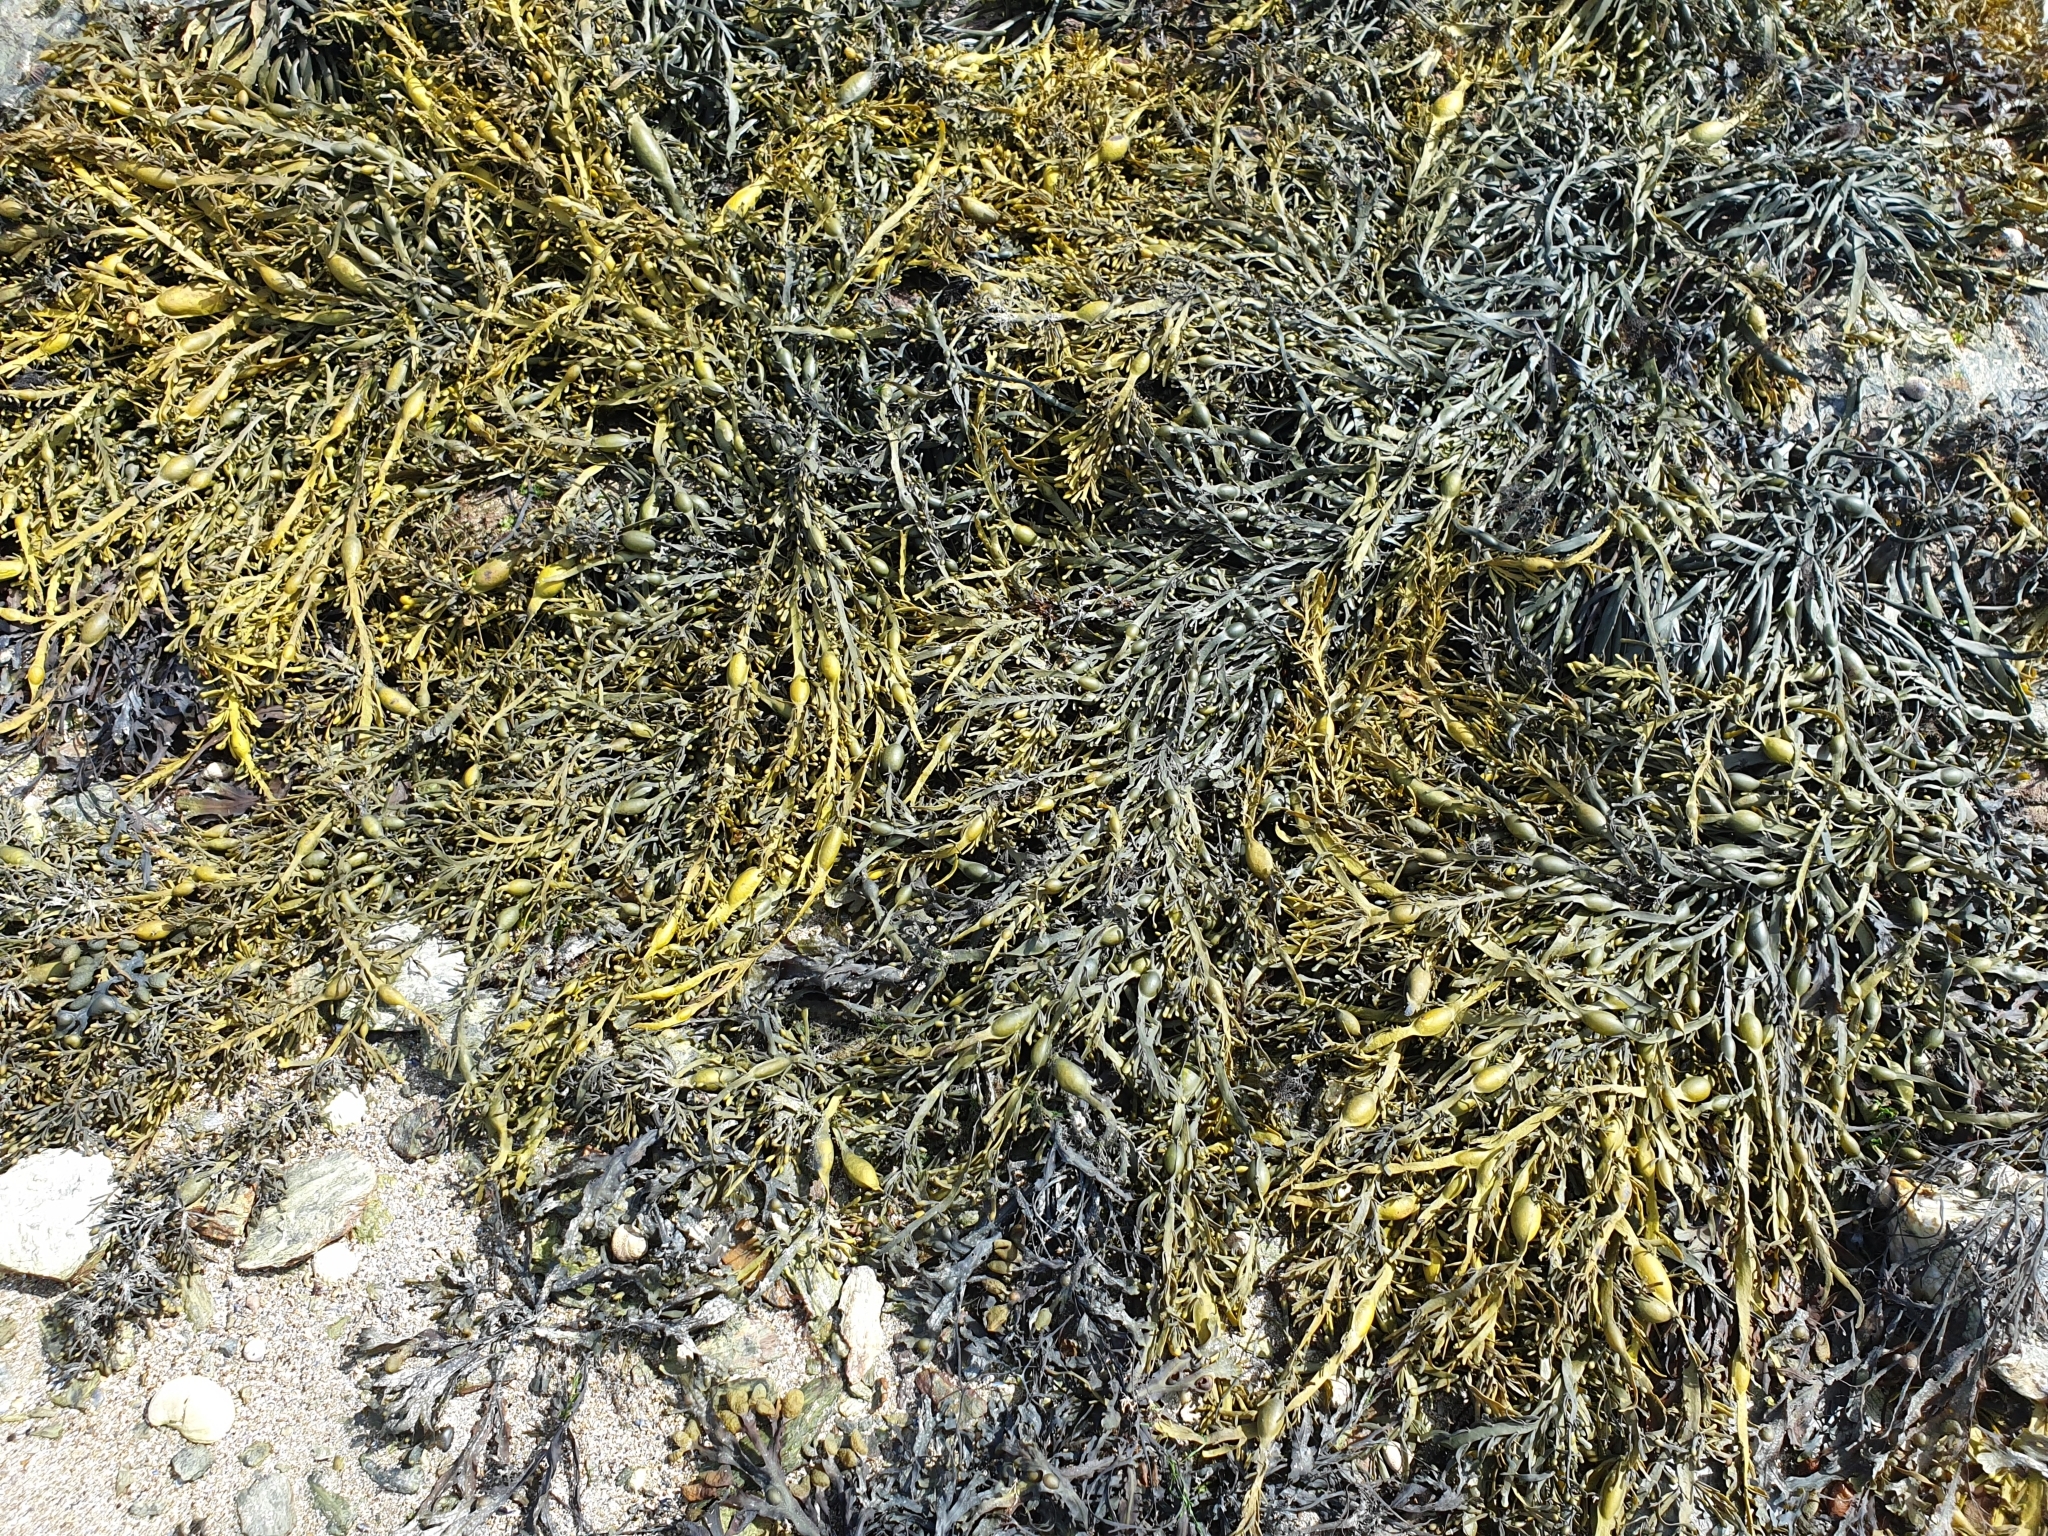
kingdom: Chromista
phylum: Ochrophyta
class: Phaeophyceae
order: Fucales
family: Fucaceae
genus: Ascophyllum
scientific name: Ascophyllum nodosum
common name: Knotted wrack
